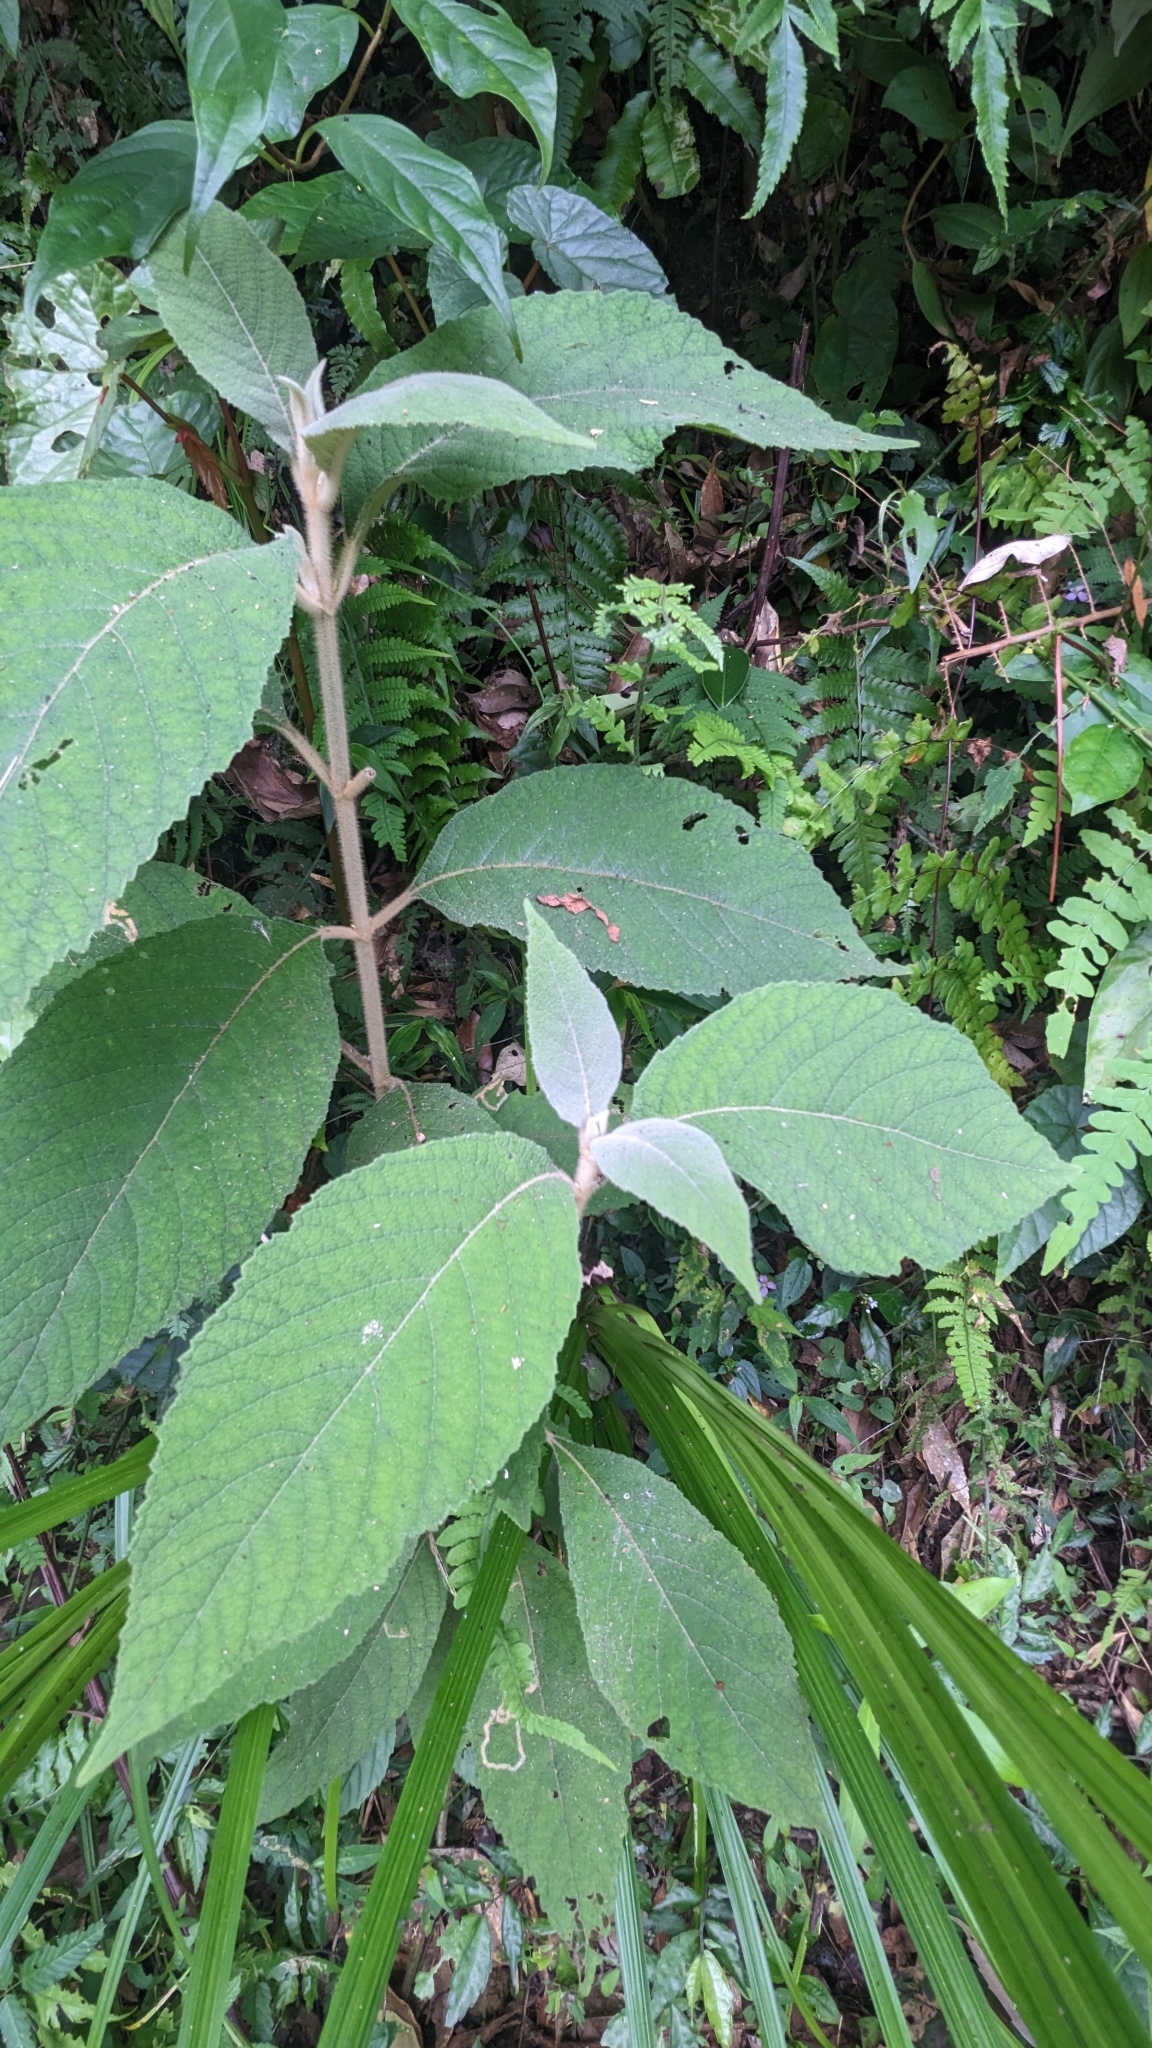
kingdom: Plantae
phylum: Tracheophyta
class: Magnoliopsida
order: Lamiales
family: Lamiaceae
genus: Callicarpa
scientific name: Callicarpa kochiana
